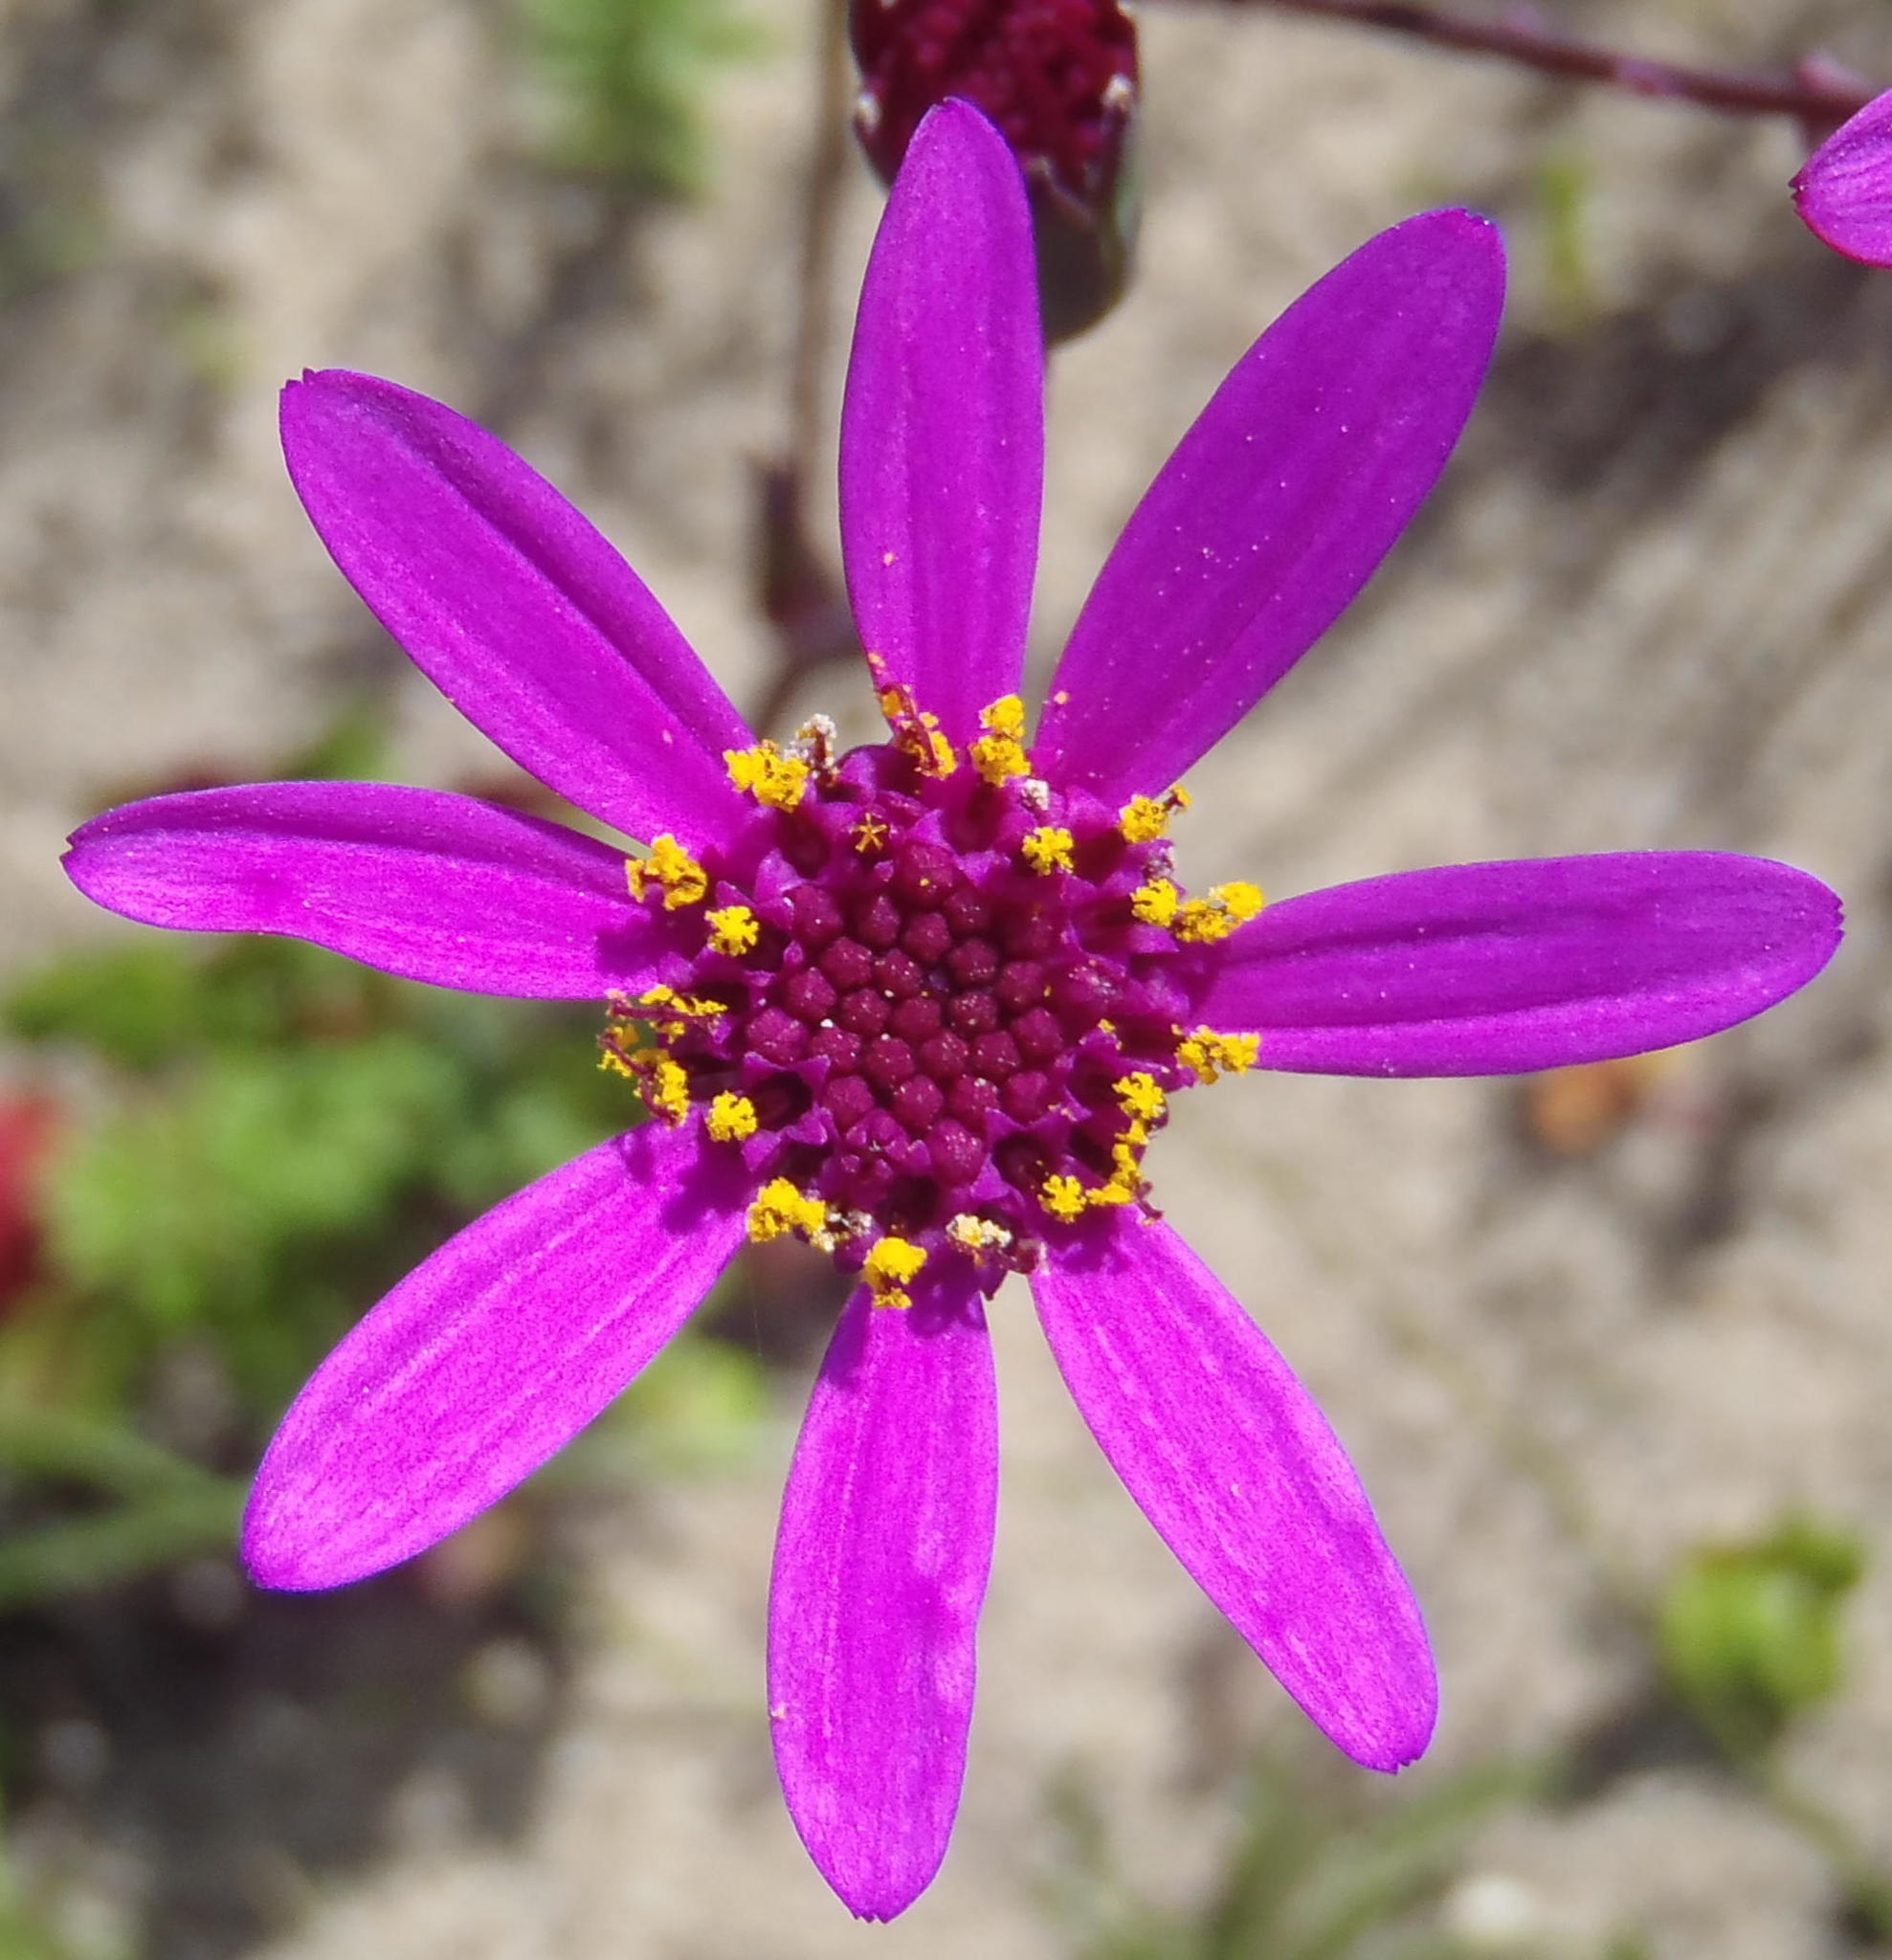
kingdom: Plantae
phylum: Tracheophyta
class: Magnoliopsida
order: Asterales
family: Asteraceae
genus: Senecio
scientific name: Senecio hastifolius
